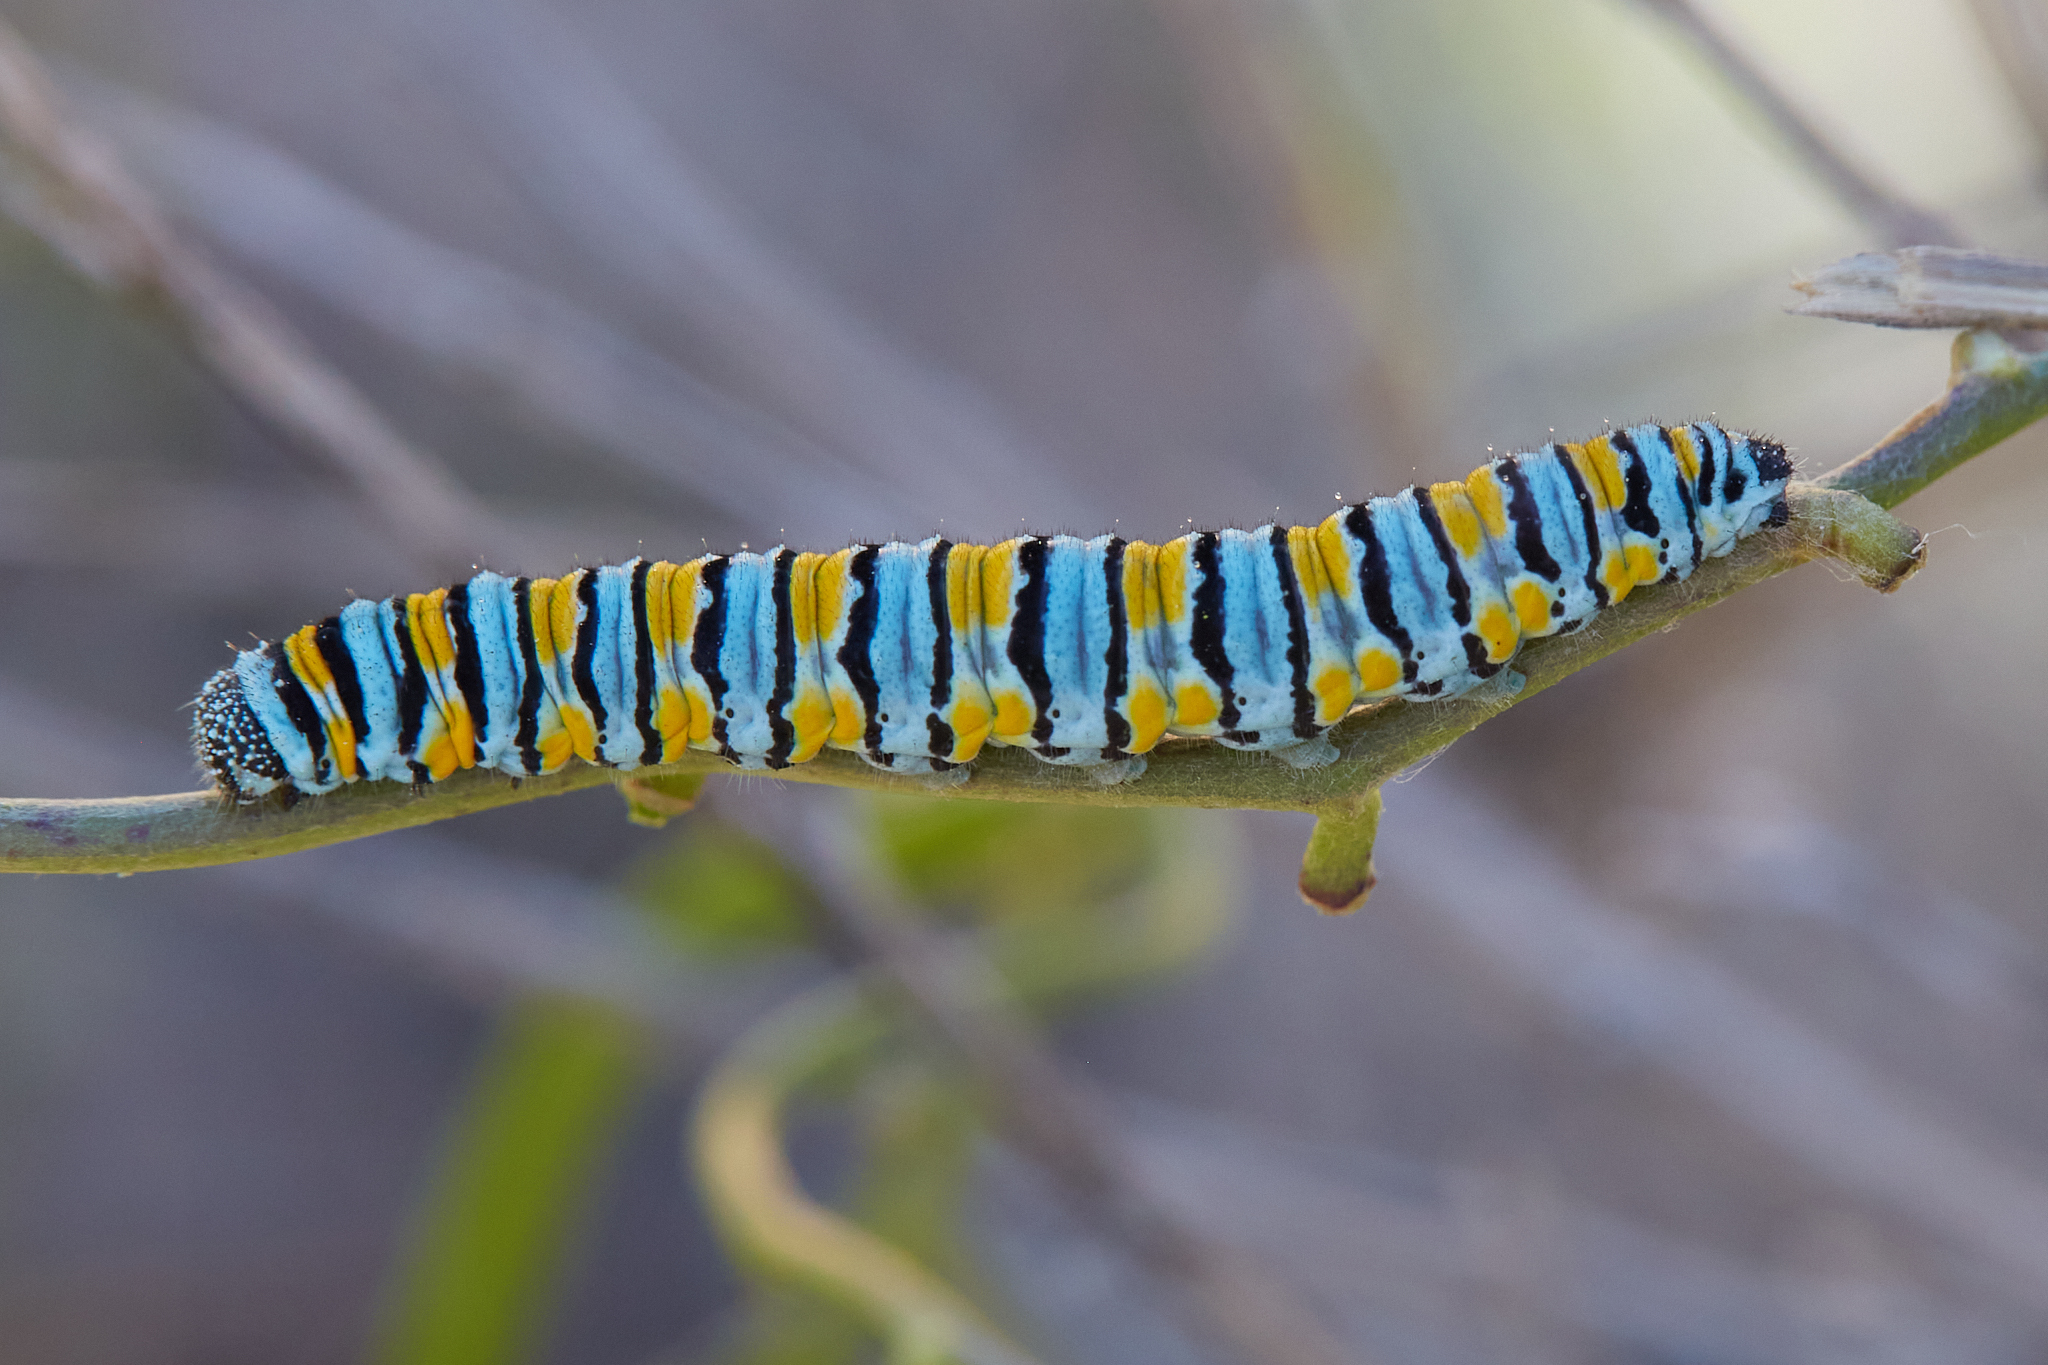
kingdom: Animalia
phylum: Arthropoda
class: Insecta
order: Lepidoptera
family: Pieridae
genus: Pontia
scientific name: Pontia sisymbrii
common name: California white
